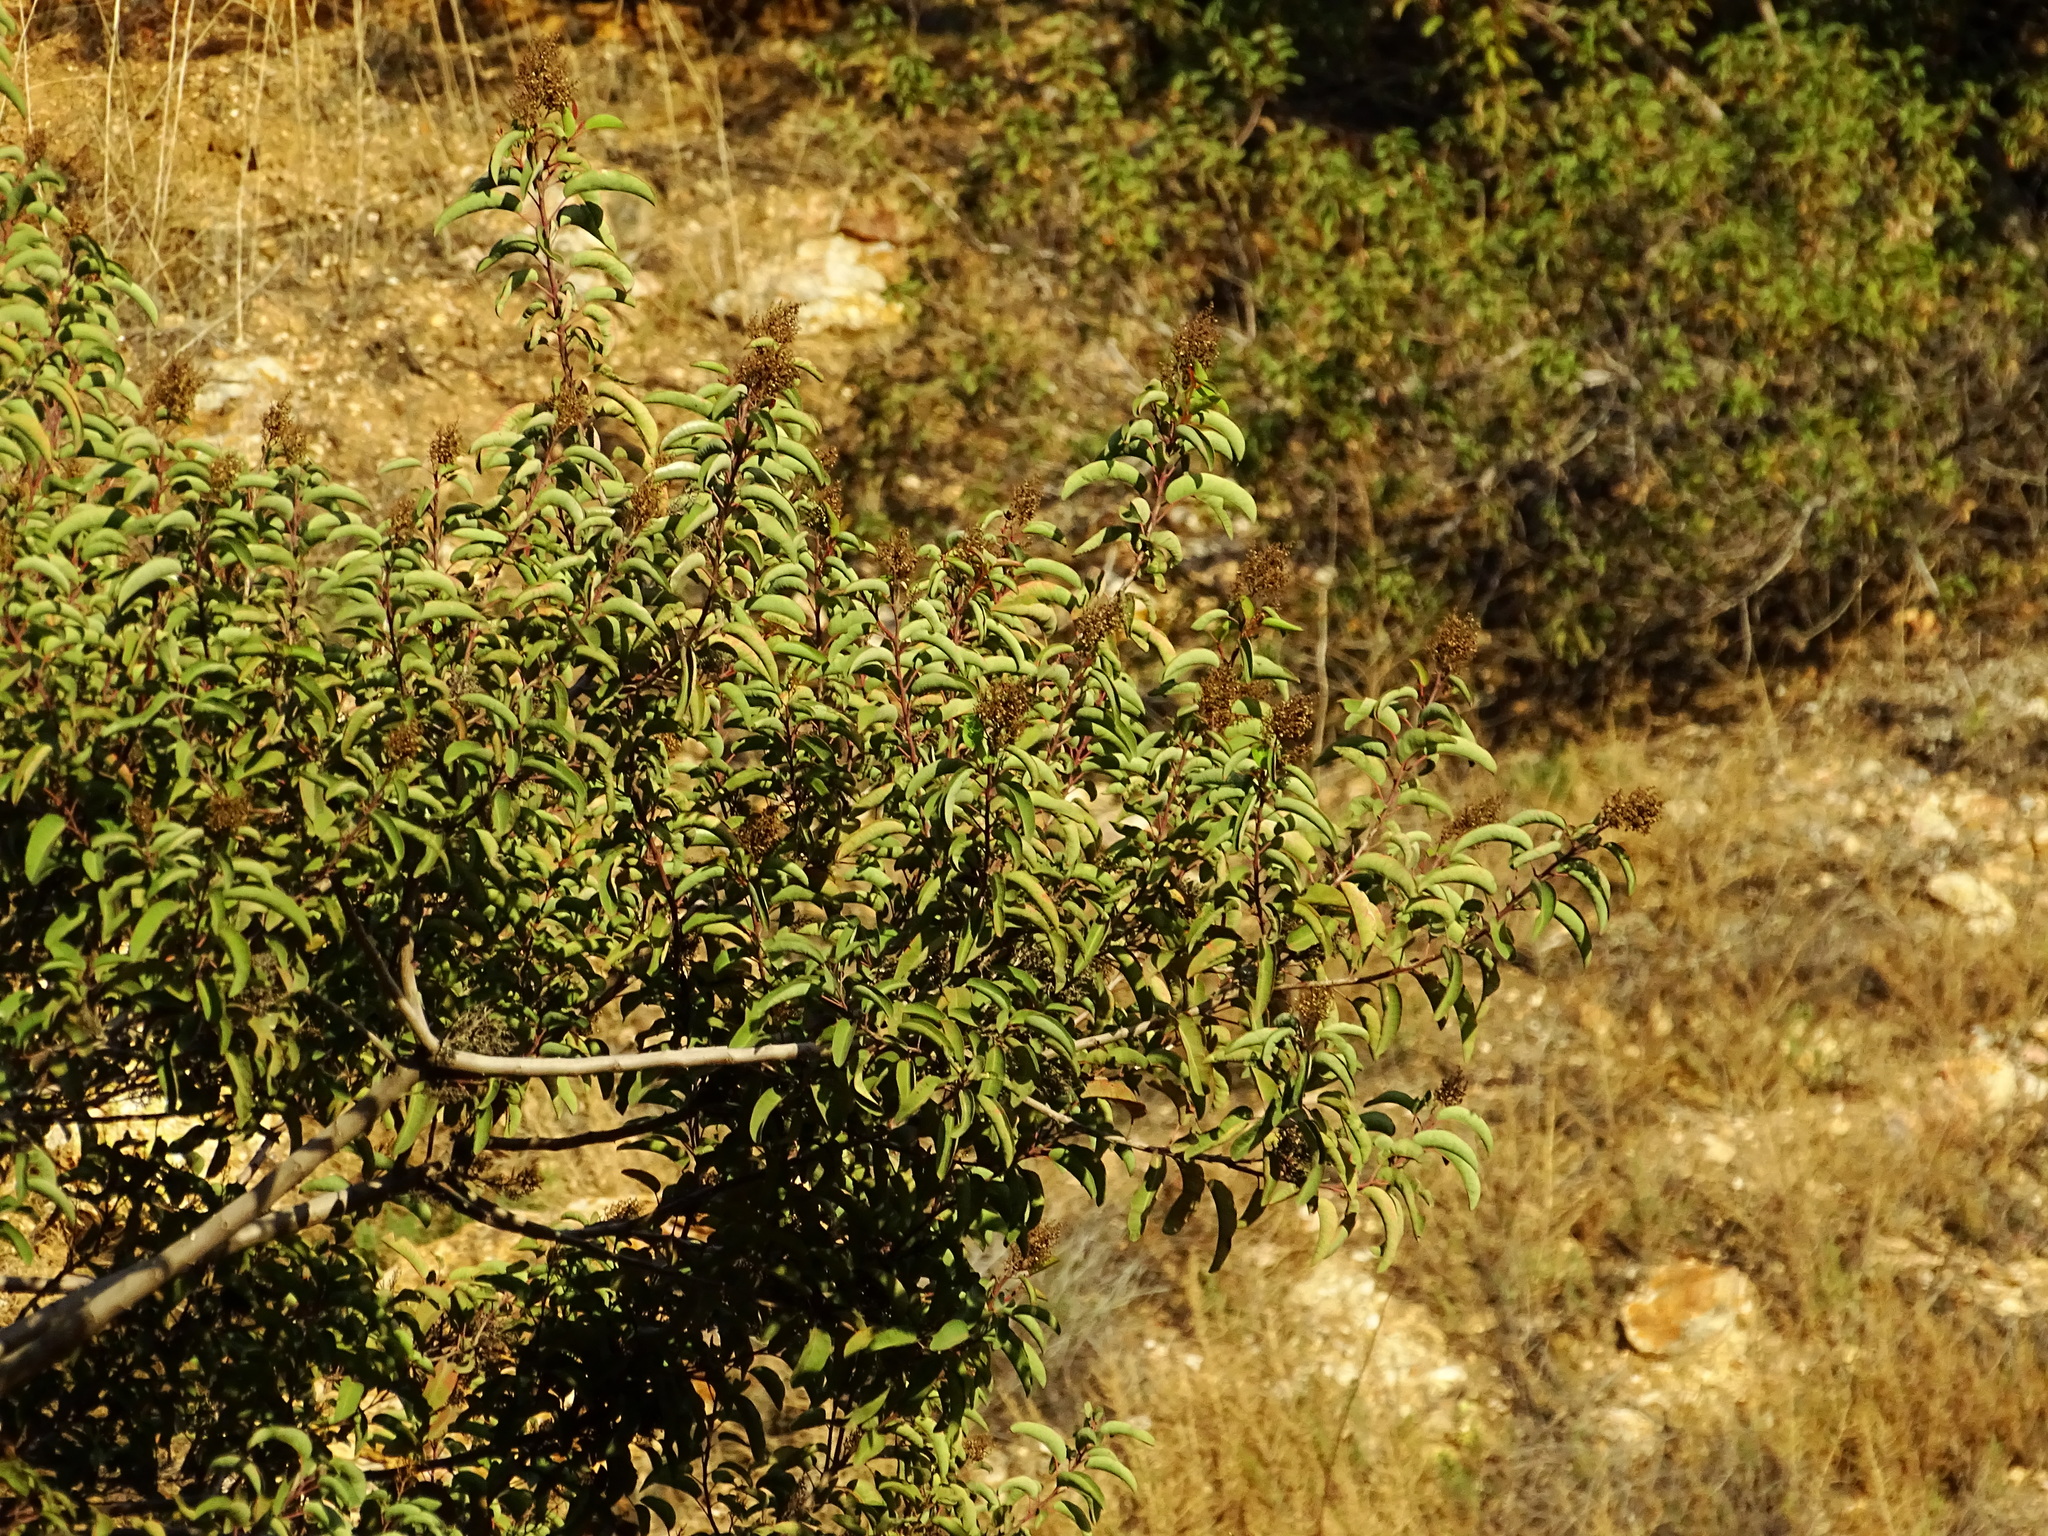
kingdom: Plantae
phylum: Tracheophyta
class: Magnoliopsida
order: Sapindales
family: Anacardiaceae
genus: Malosma
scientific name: Malosma laurina
